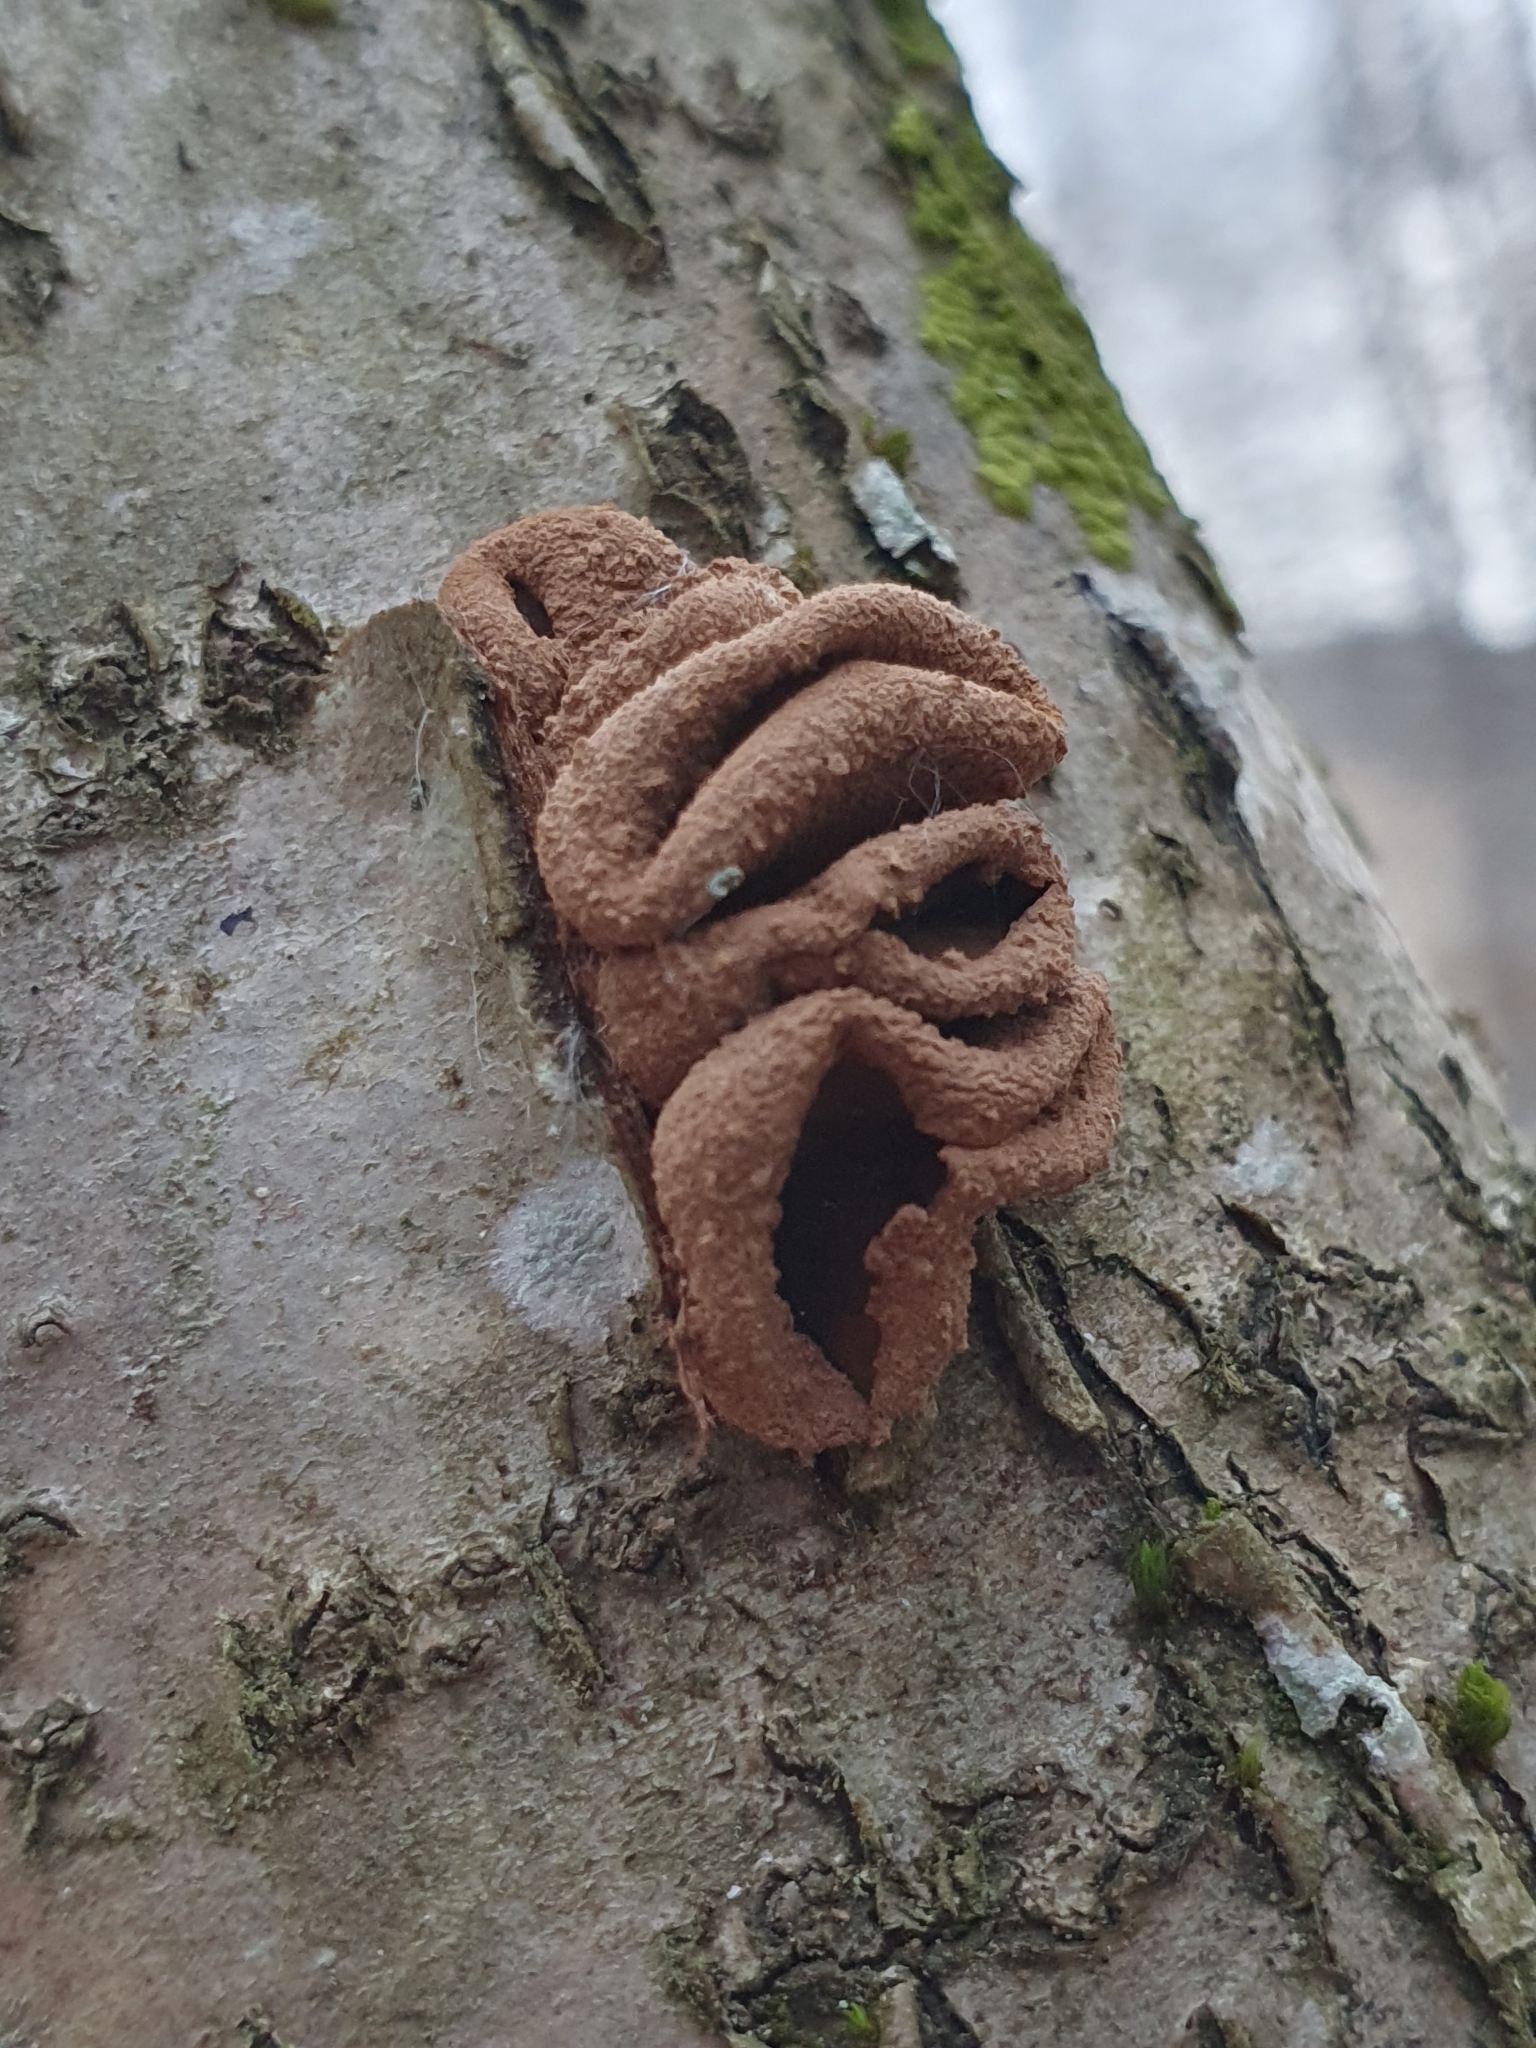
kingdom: Fungi
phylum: Ascomycota
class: Leotiomycetes
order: Helotiales
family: Cenangiaceae
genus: Encoelia
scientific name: Encoelia furfuracea
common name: Spring hazelcup
